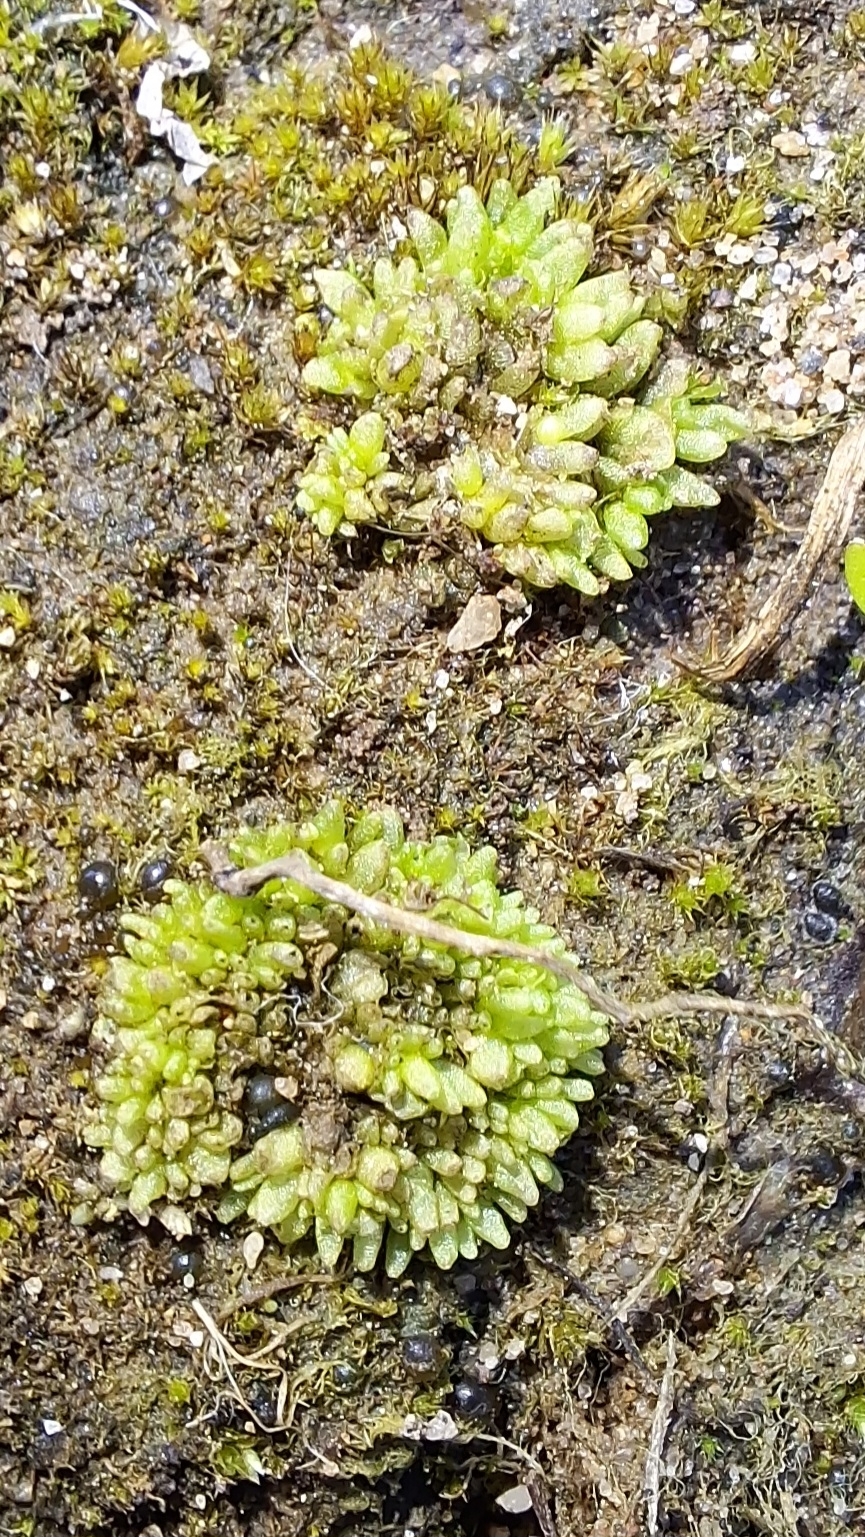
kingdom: Plantae
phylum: Marchantiophyta
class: Marchantiopsida
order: Sphaerocarpales
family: Sphaerocarpaceae
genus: Sphaerocarpos
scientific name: Sphaerocarpos texanus
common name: Texas balloonwort
